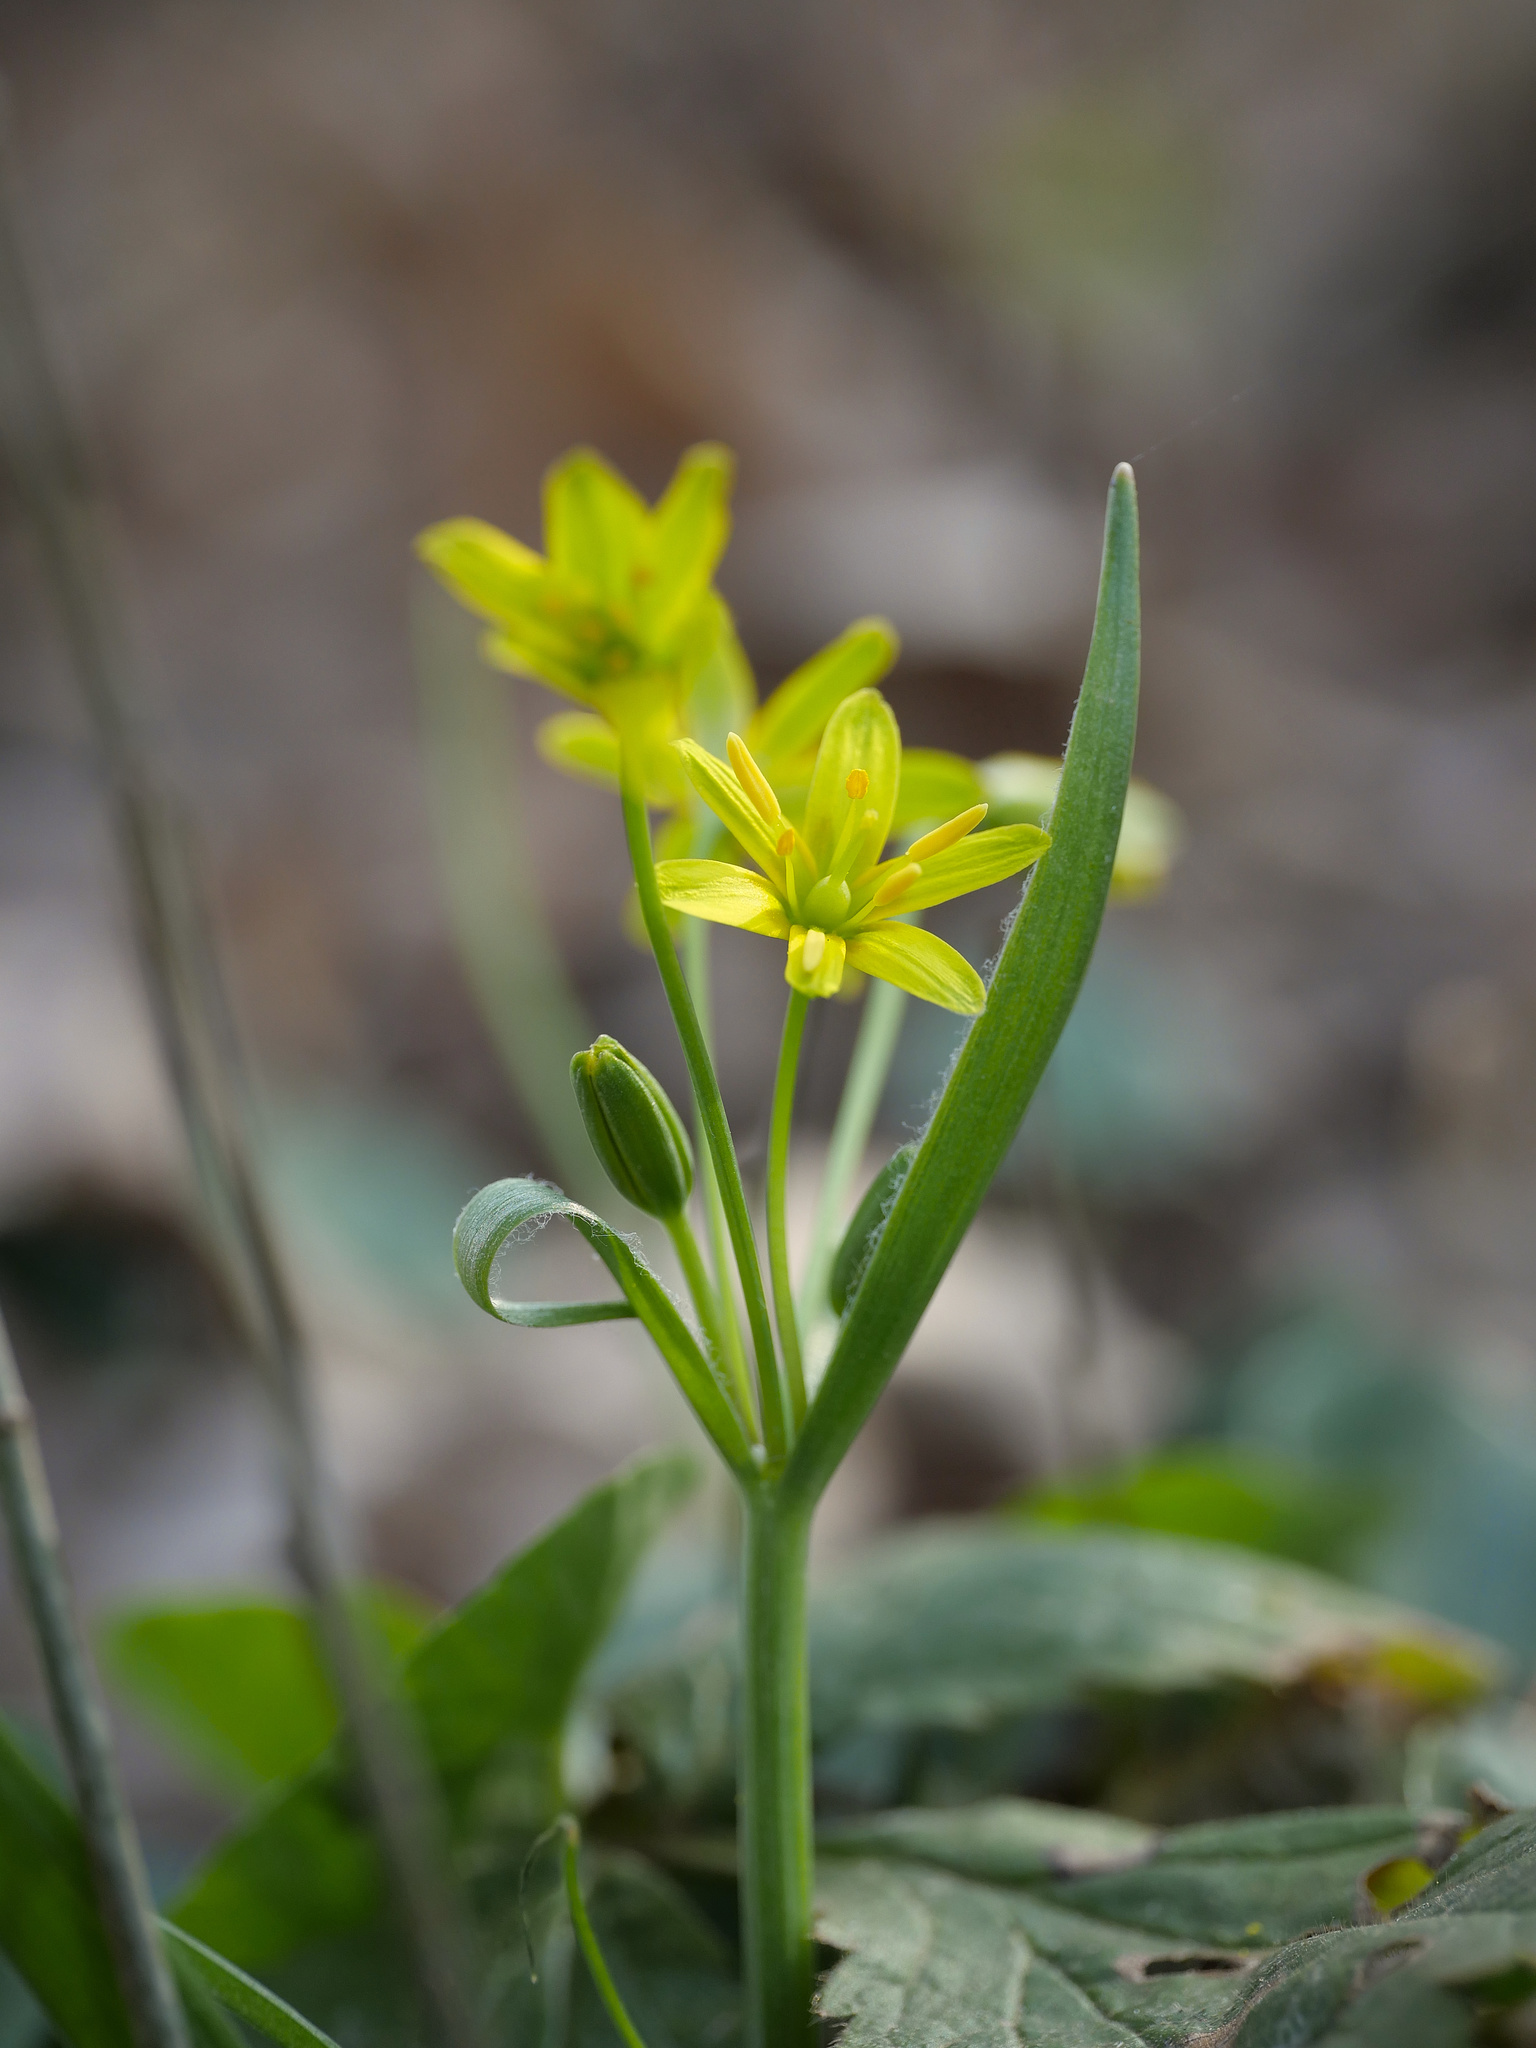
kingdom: Plantae
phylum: Tracheophyta
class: Liliopsida
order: Liliales
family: Liliaceae
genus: Gagea
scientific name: Gagea lutea
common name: Yellow star-of-bethlehem
